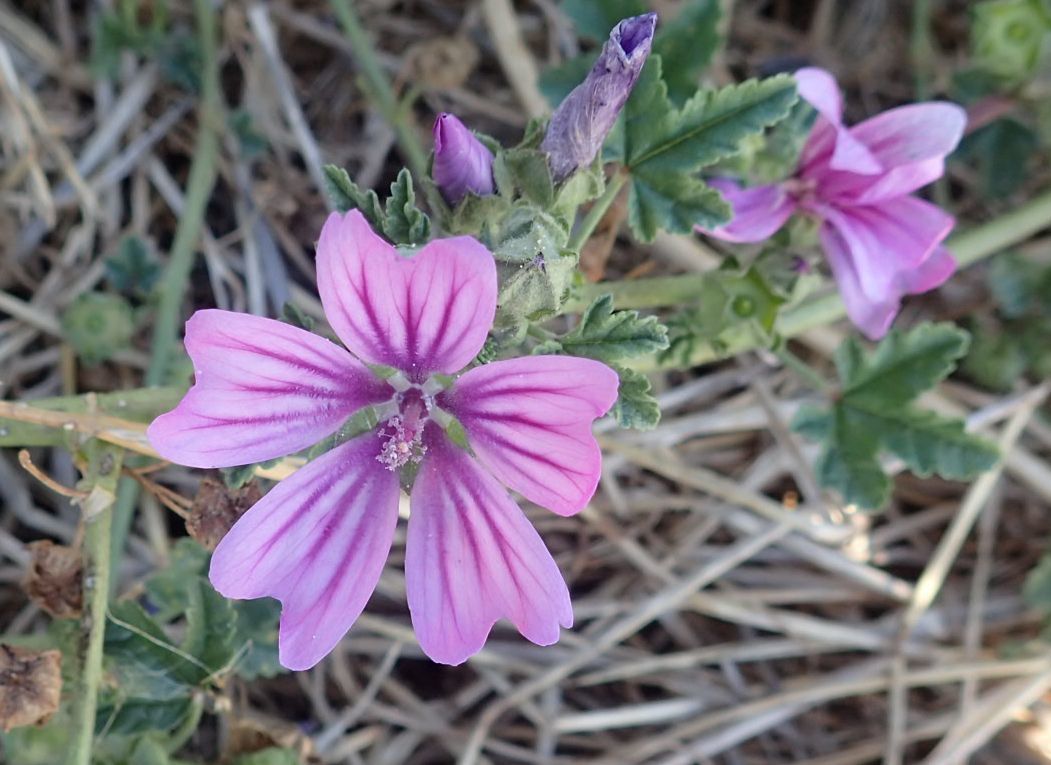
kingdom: Plantae
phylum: Tracheophyta
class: Magnoliopsida
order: Malvales
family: Malvaceae
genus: Malva
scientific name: Malva sylvestris
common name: Common mallow
